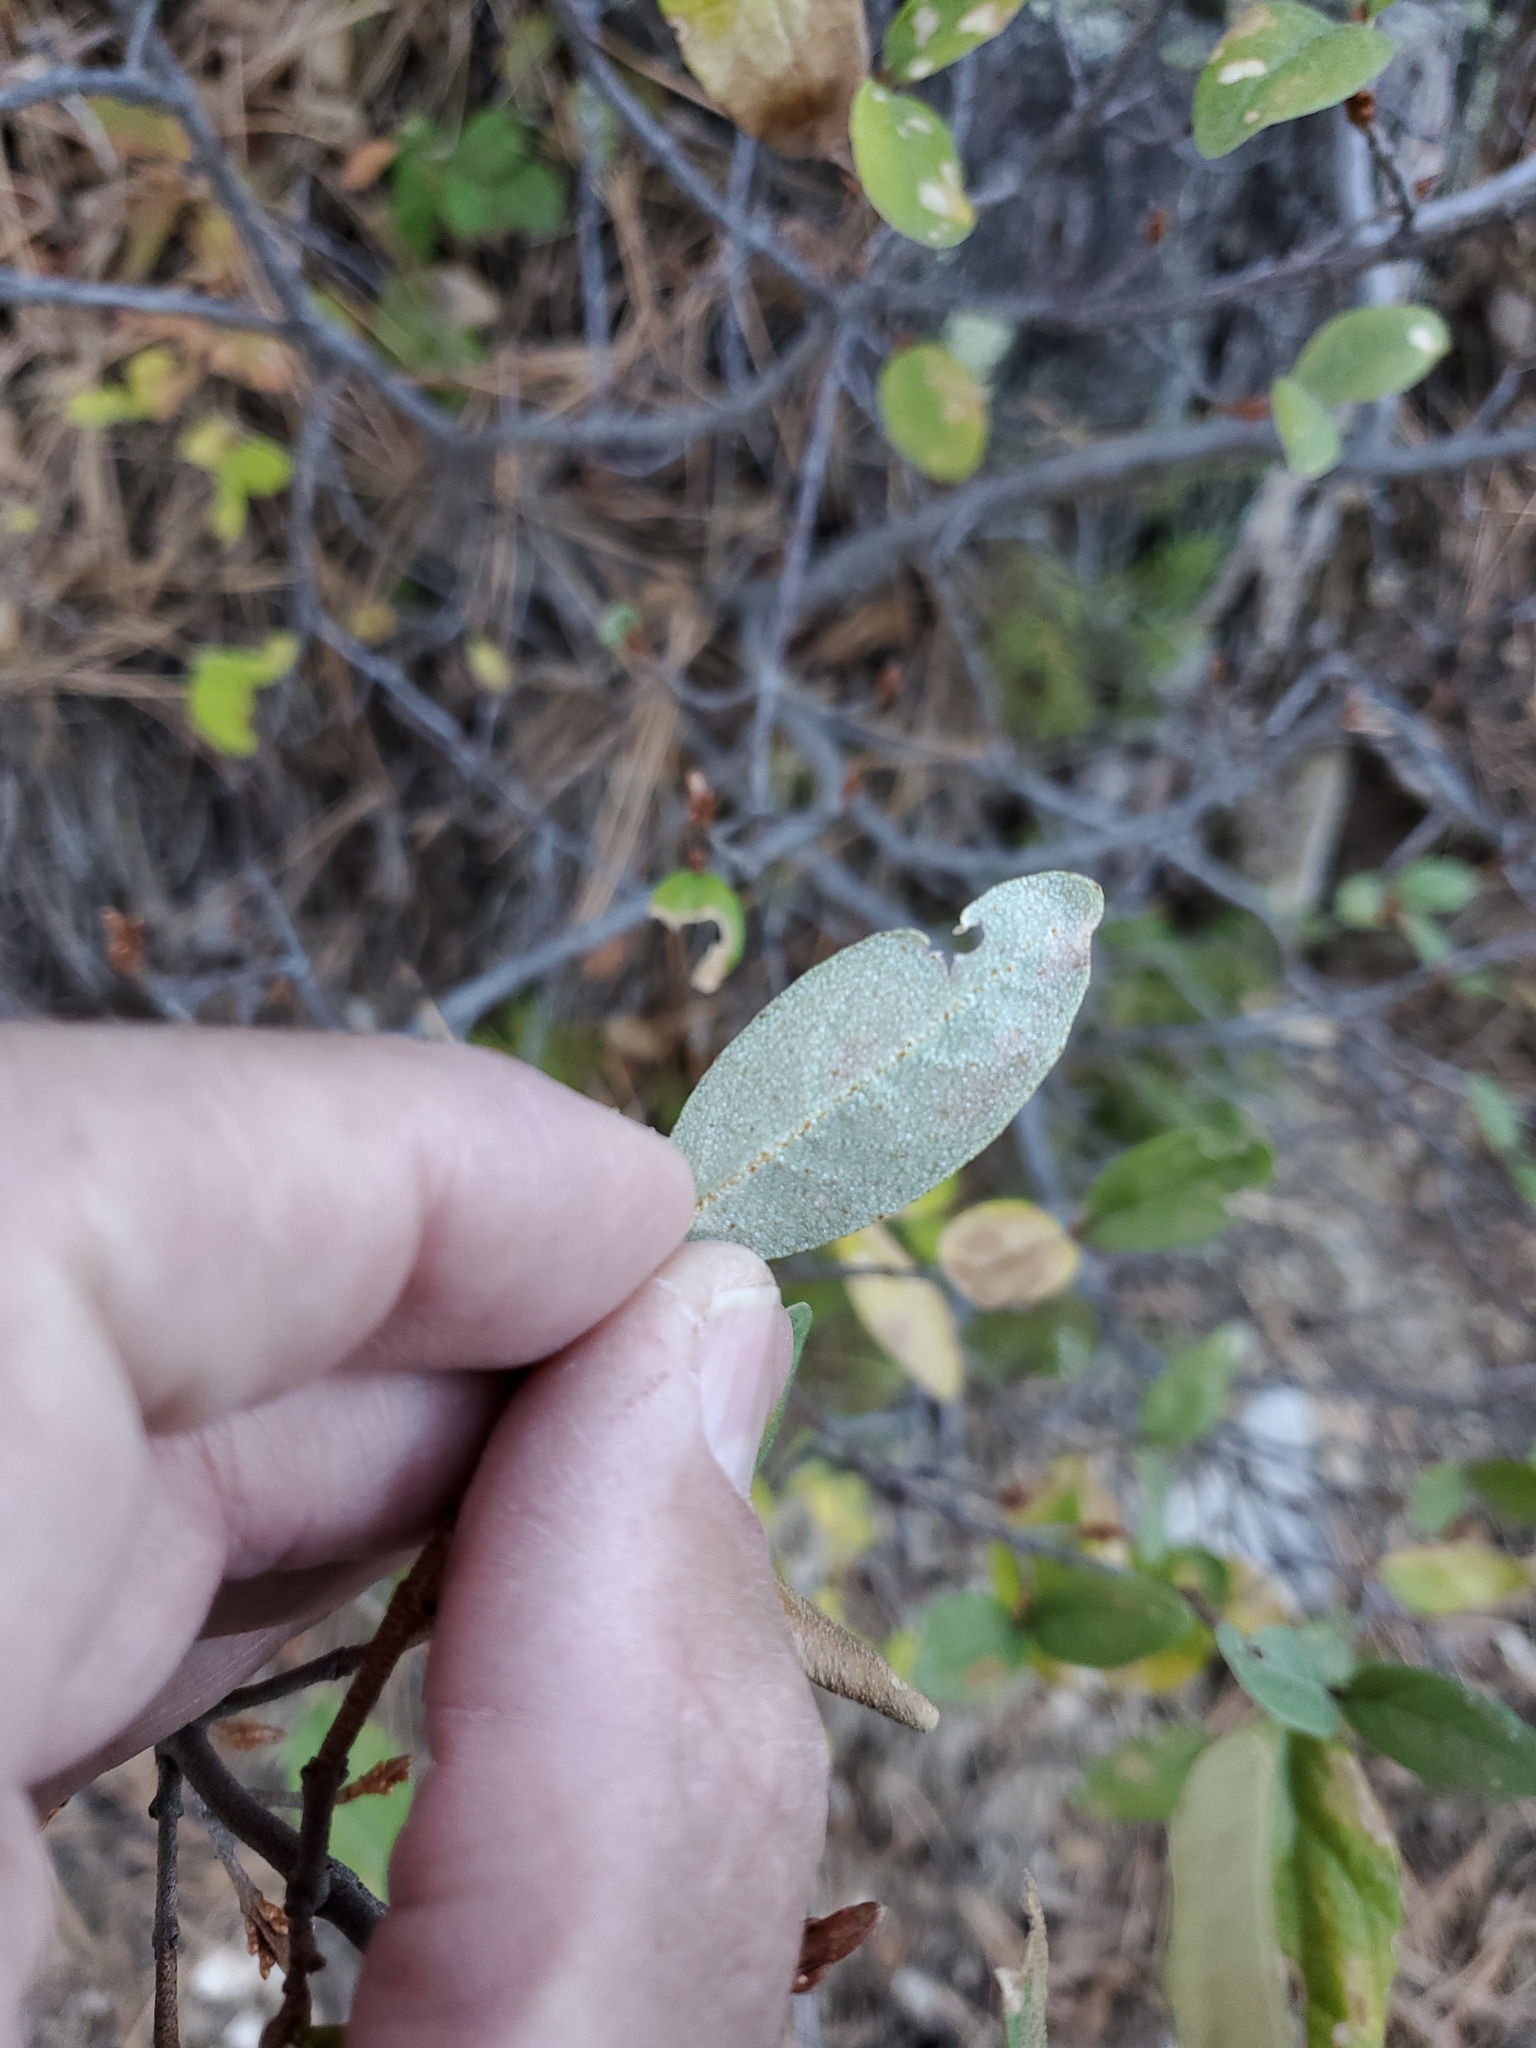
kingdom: Plantae
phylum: Tracheophyta
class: Magnoliopsida
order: Rosales
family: Elaeagnaceae
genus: Shepherdia
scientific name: Shepherdia canadensis
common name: Soapberry
